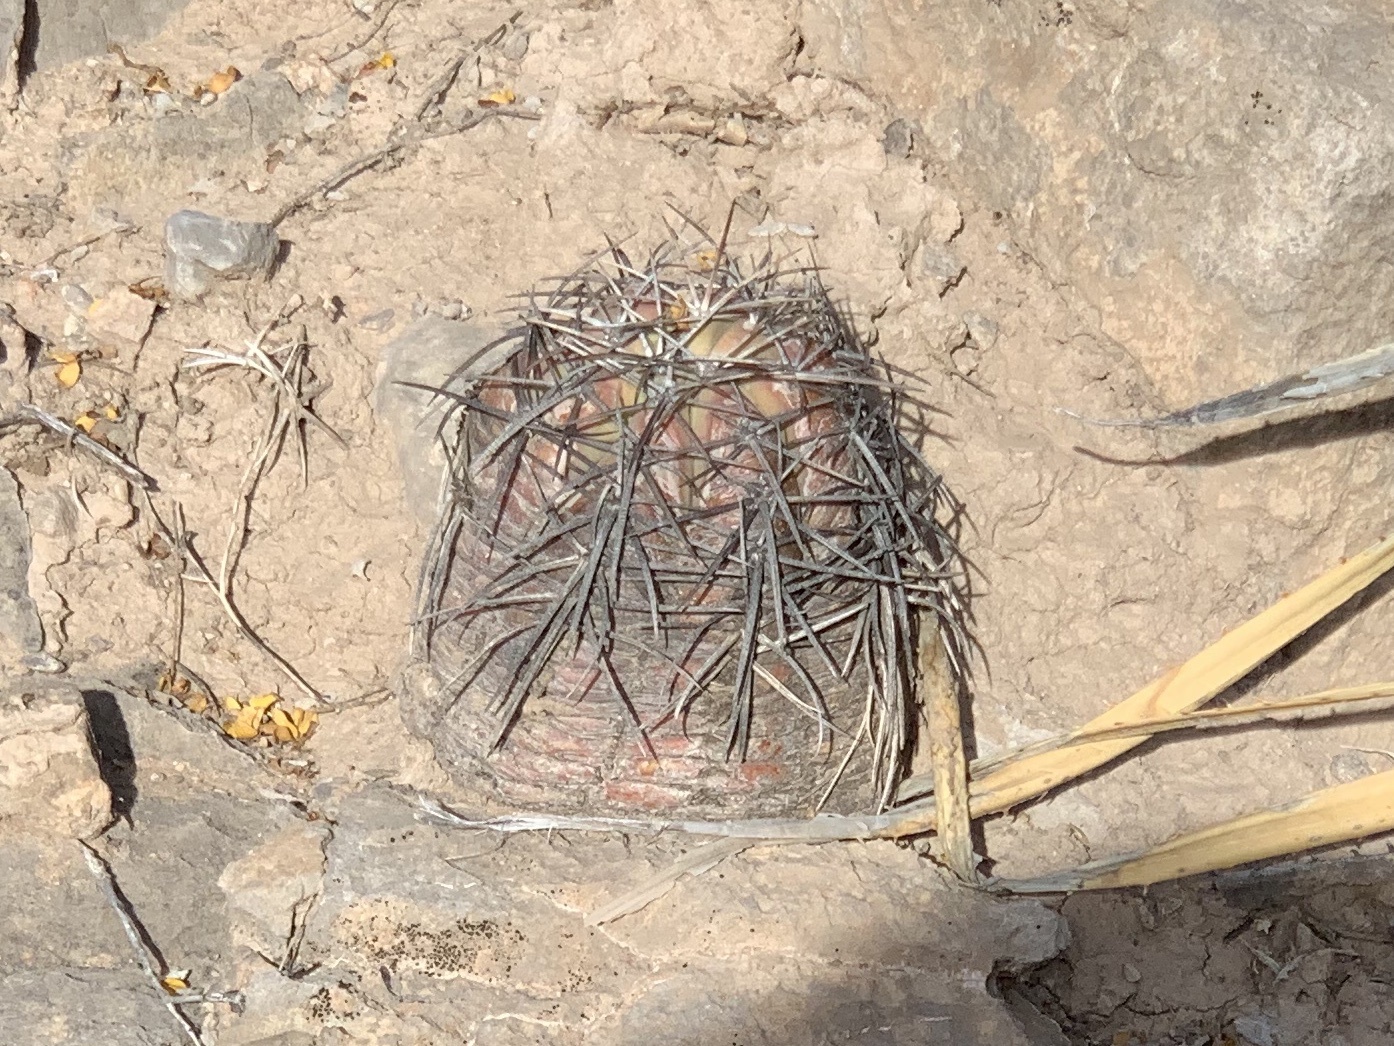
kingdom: Plantae
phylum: Tracheophyta
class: Magnoliopsida
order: Caryophyllales
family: Cactaceae
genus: Echinocactus
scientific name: Echinocactus horizonthalonius
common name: Devilshead
